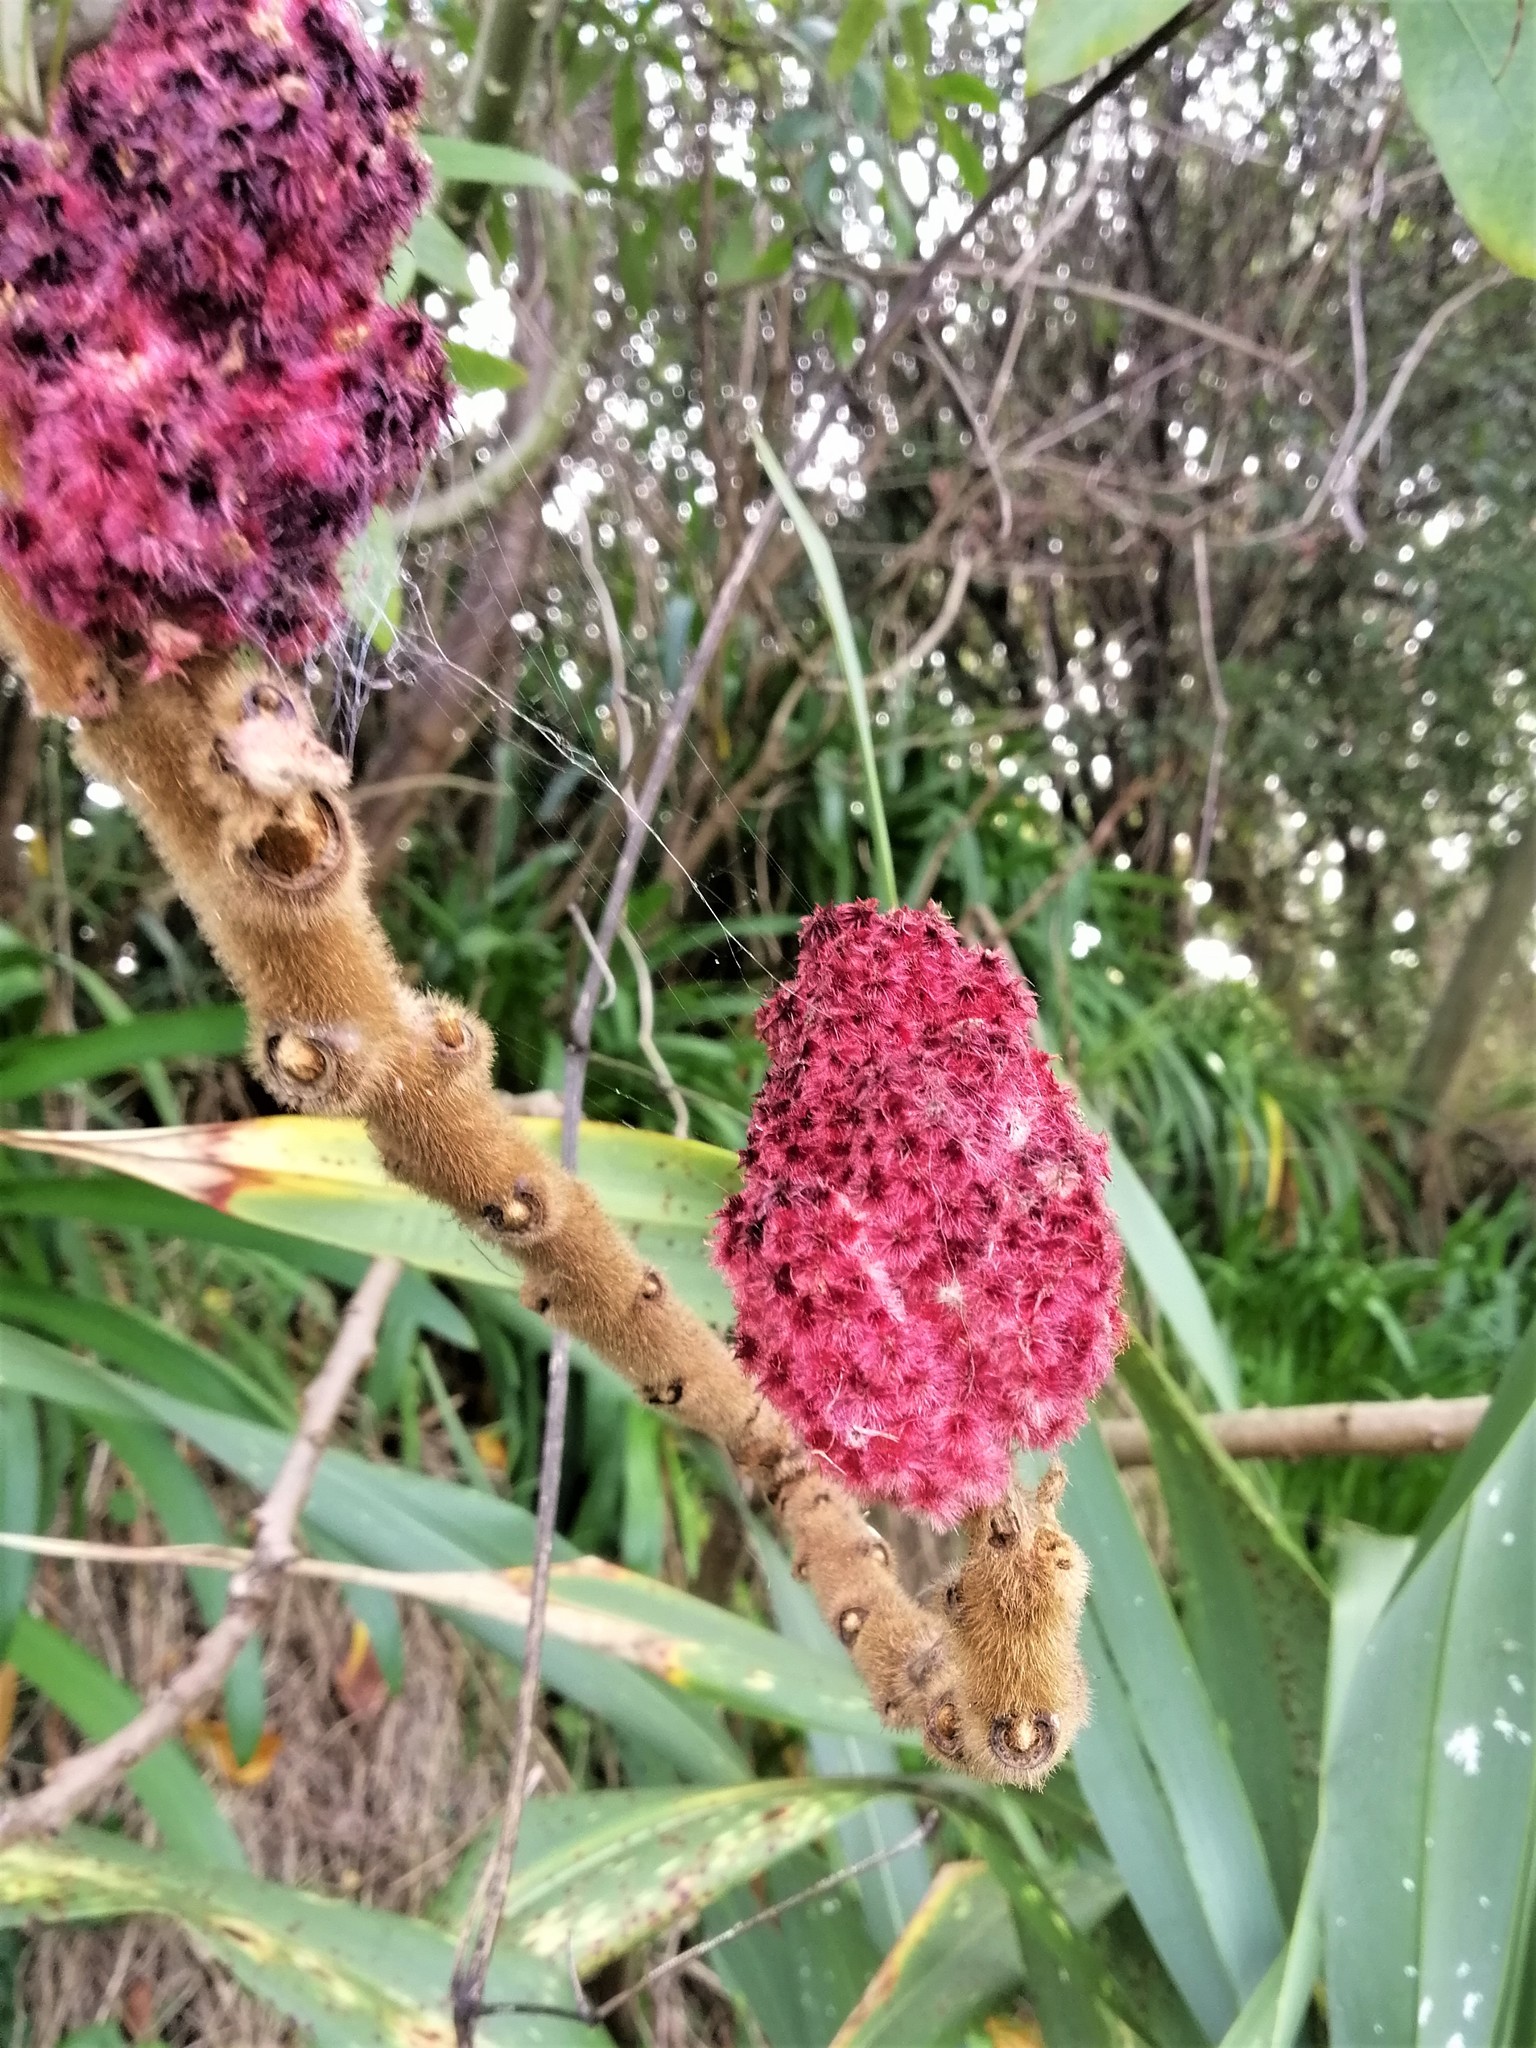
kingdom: Plantae
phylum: Tracheophyta
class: Magnoliopsida
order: Sapindales
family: Anacardiaceae
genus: Rhus
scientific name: Rhus typhina
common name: Staghorn sumac
